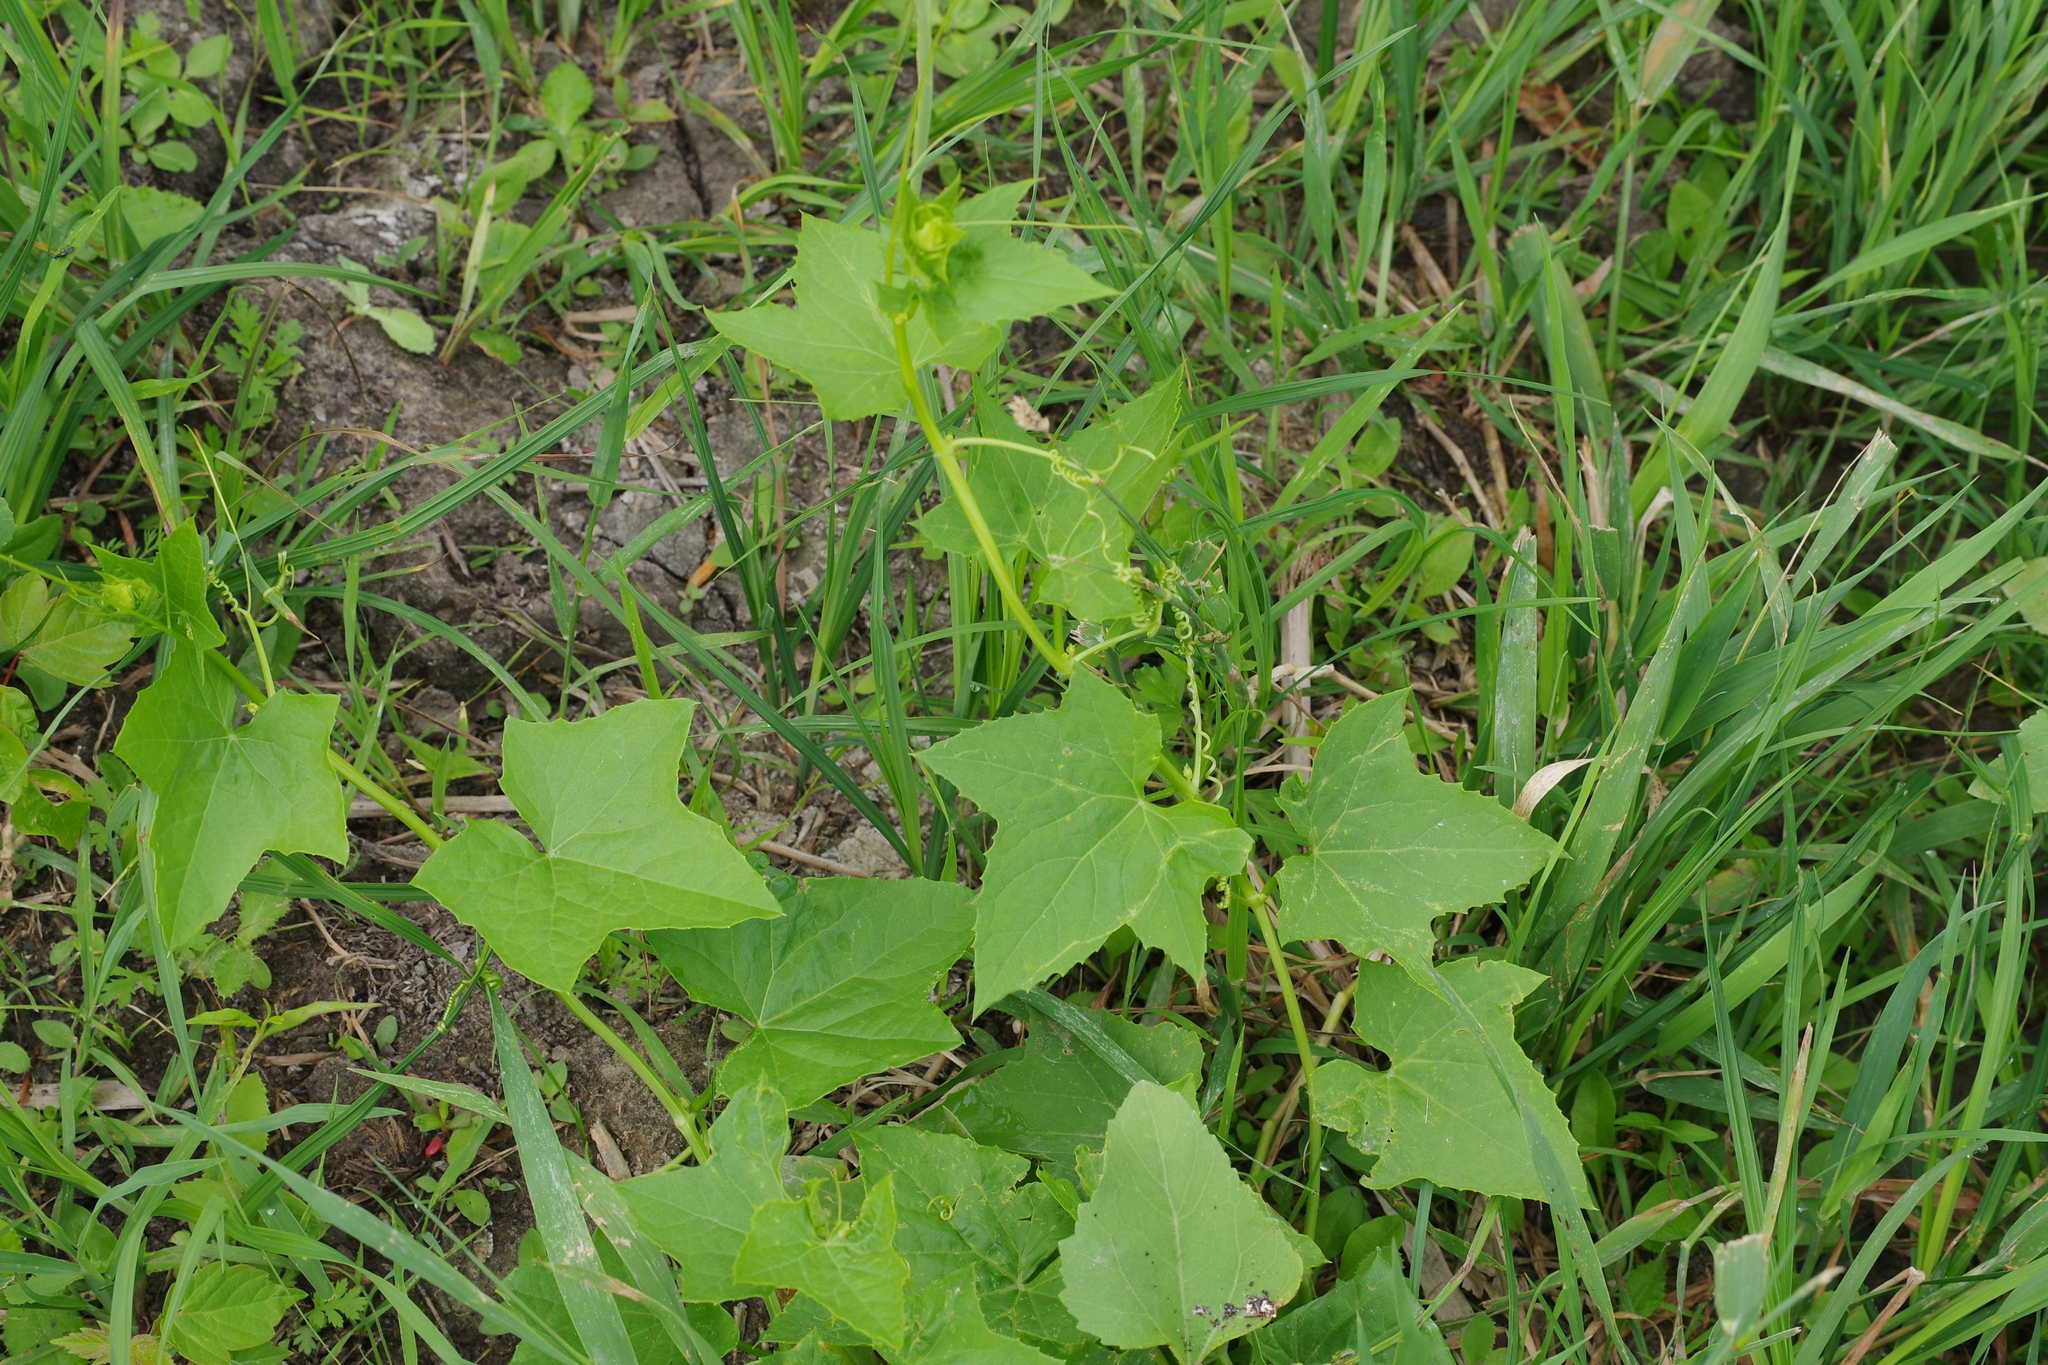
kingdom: Plantae
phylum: Tracheophyta
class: Magnoliopsida
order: Cucurbitales
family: Cucurbitaceae
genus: Echinocystis
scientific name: Echinocystis lobata
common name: Wild cucumber
